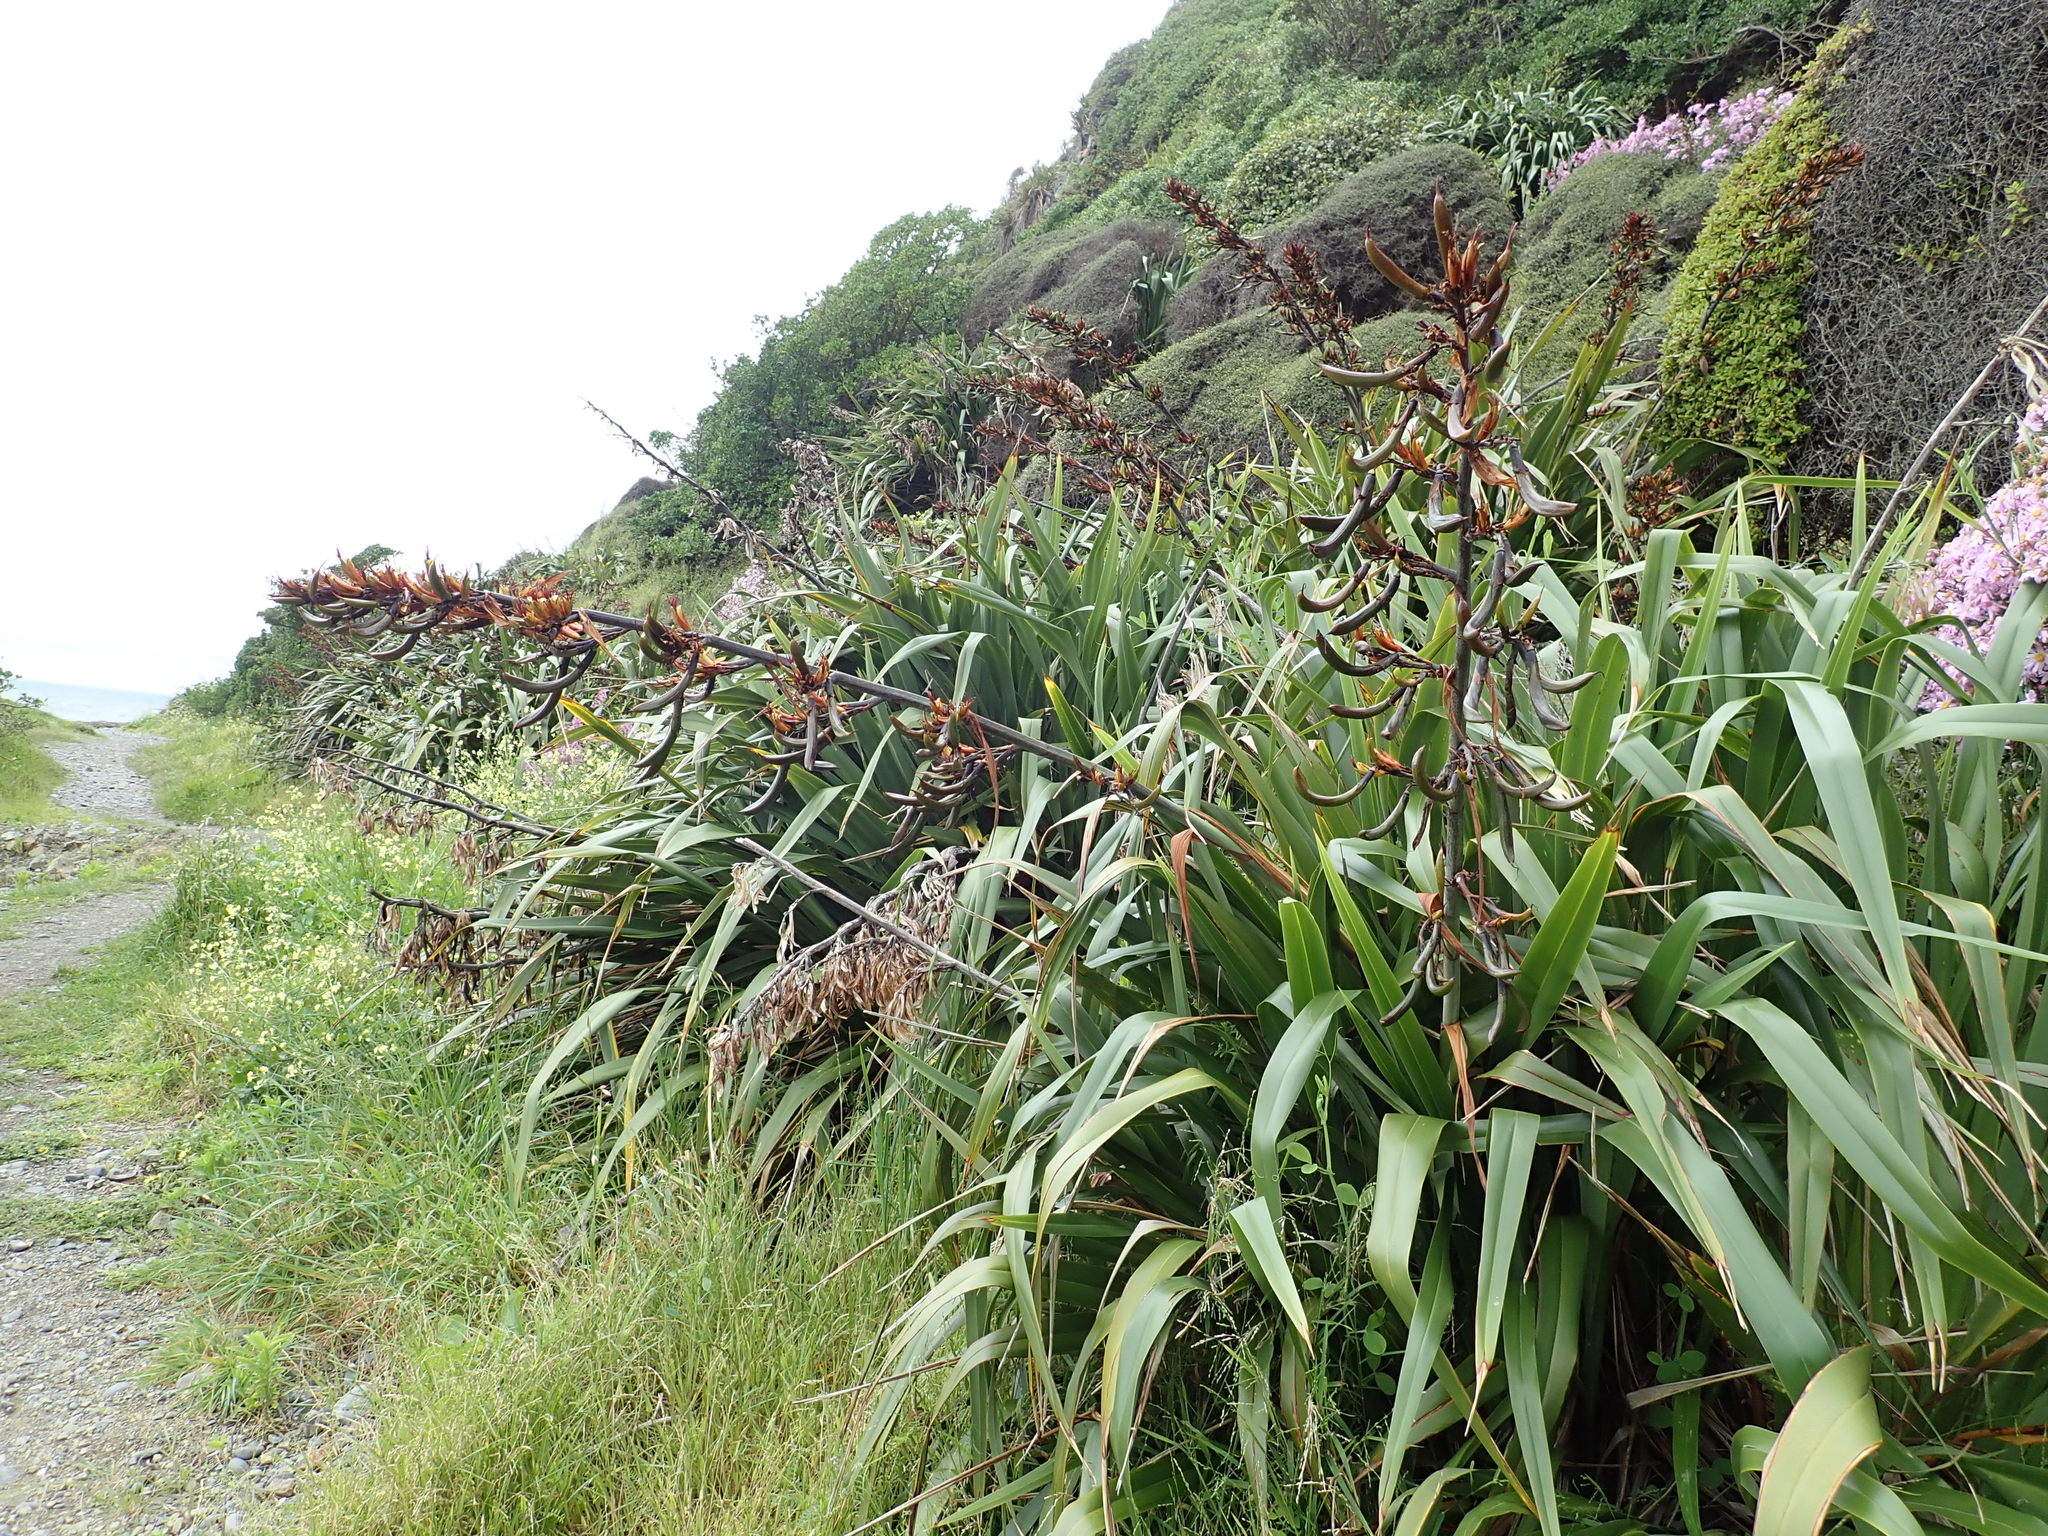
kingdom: Plantae
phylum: Tracheophyta
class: Liliopsida
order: Asparagales
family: Asphodelaceae
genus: Phormium
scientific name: Phormium colensoi
